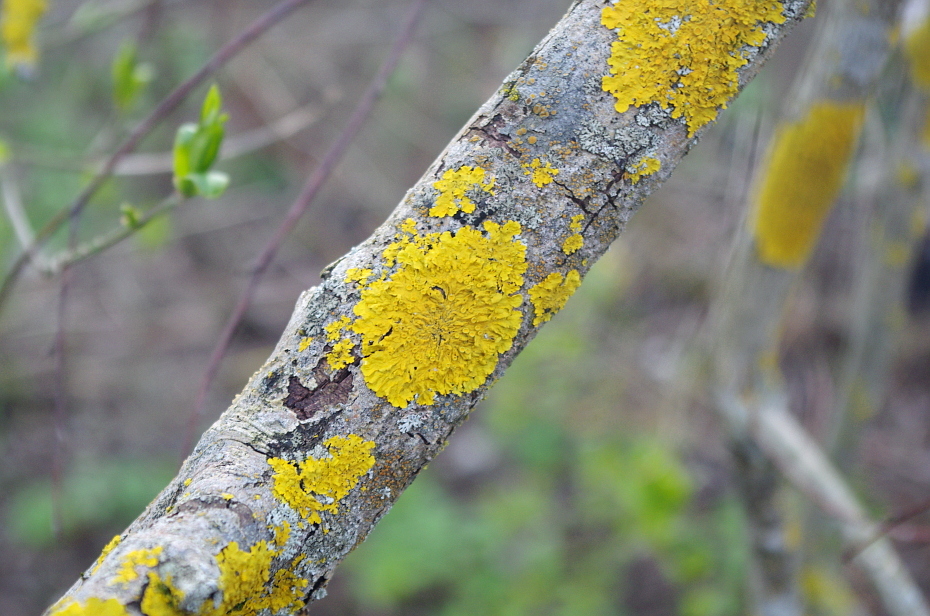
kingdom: Fungi
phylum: Ascomycota
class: Lecanoromycetes
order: Teloschistales
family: Teloschistaceae
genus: Xanthoria
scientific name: Xanthoria parietina
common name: Common orange lichen
